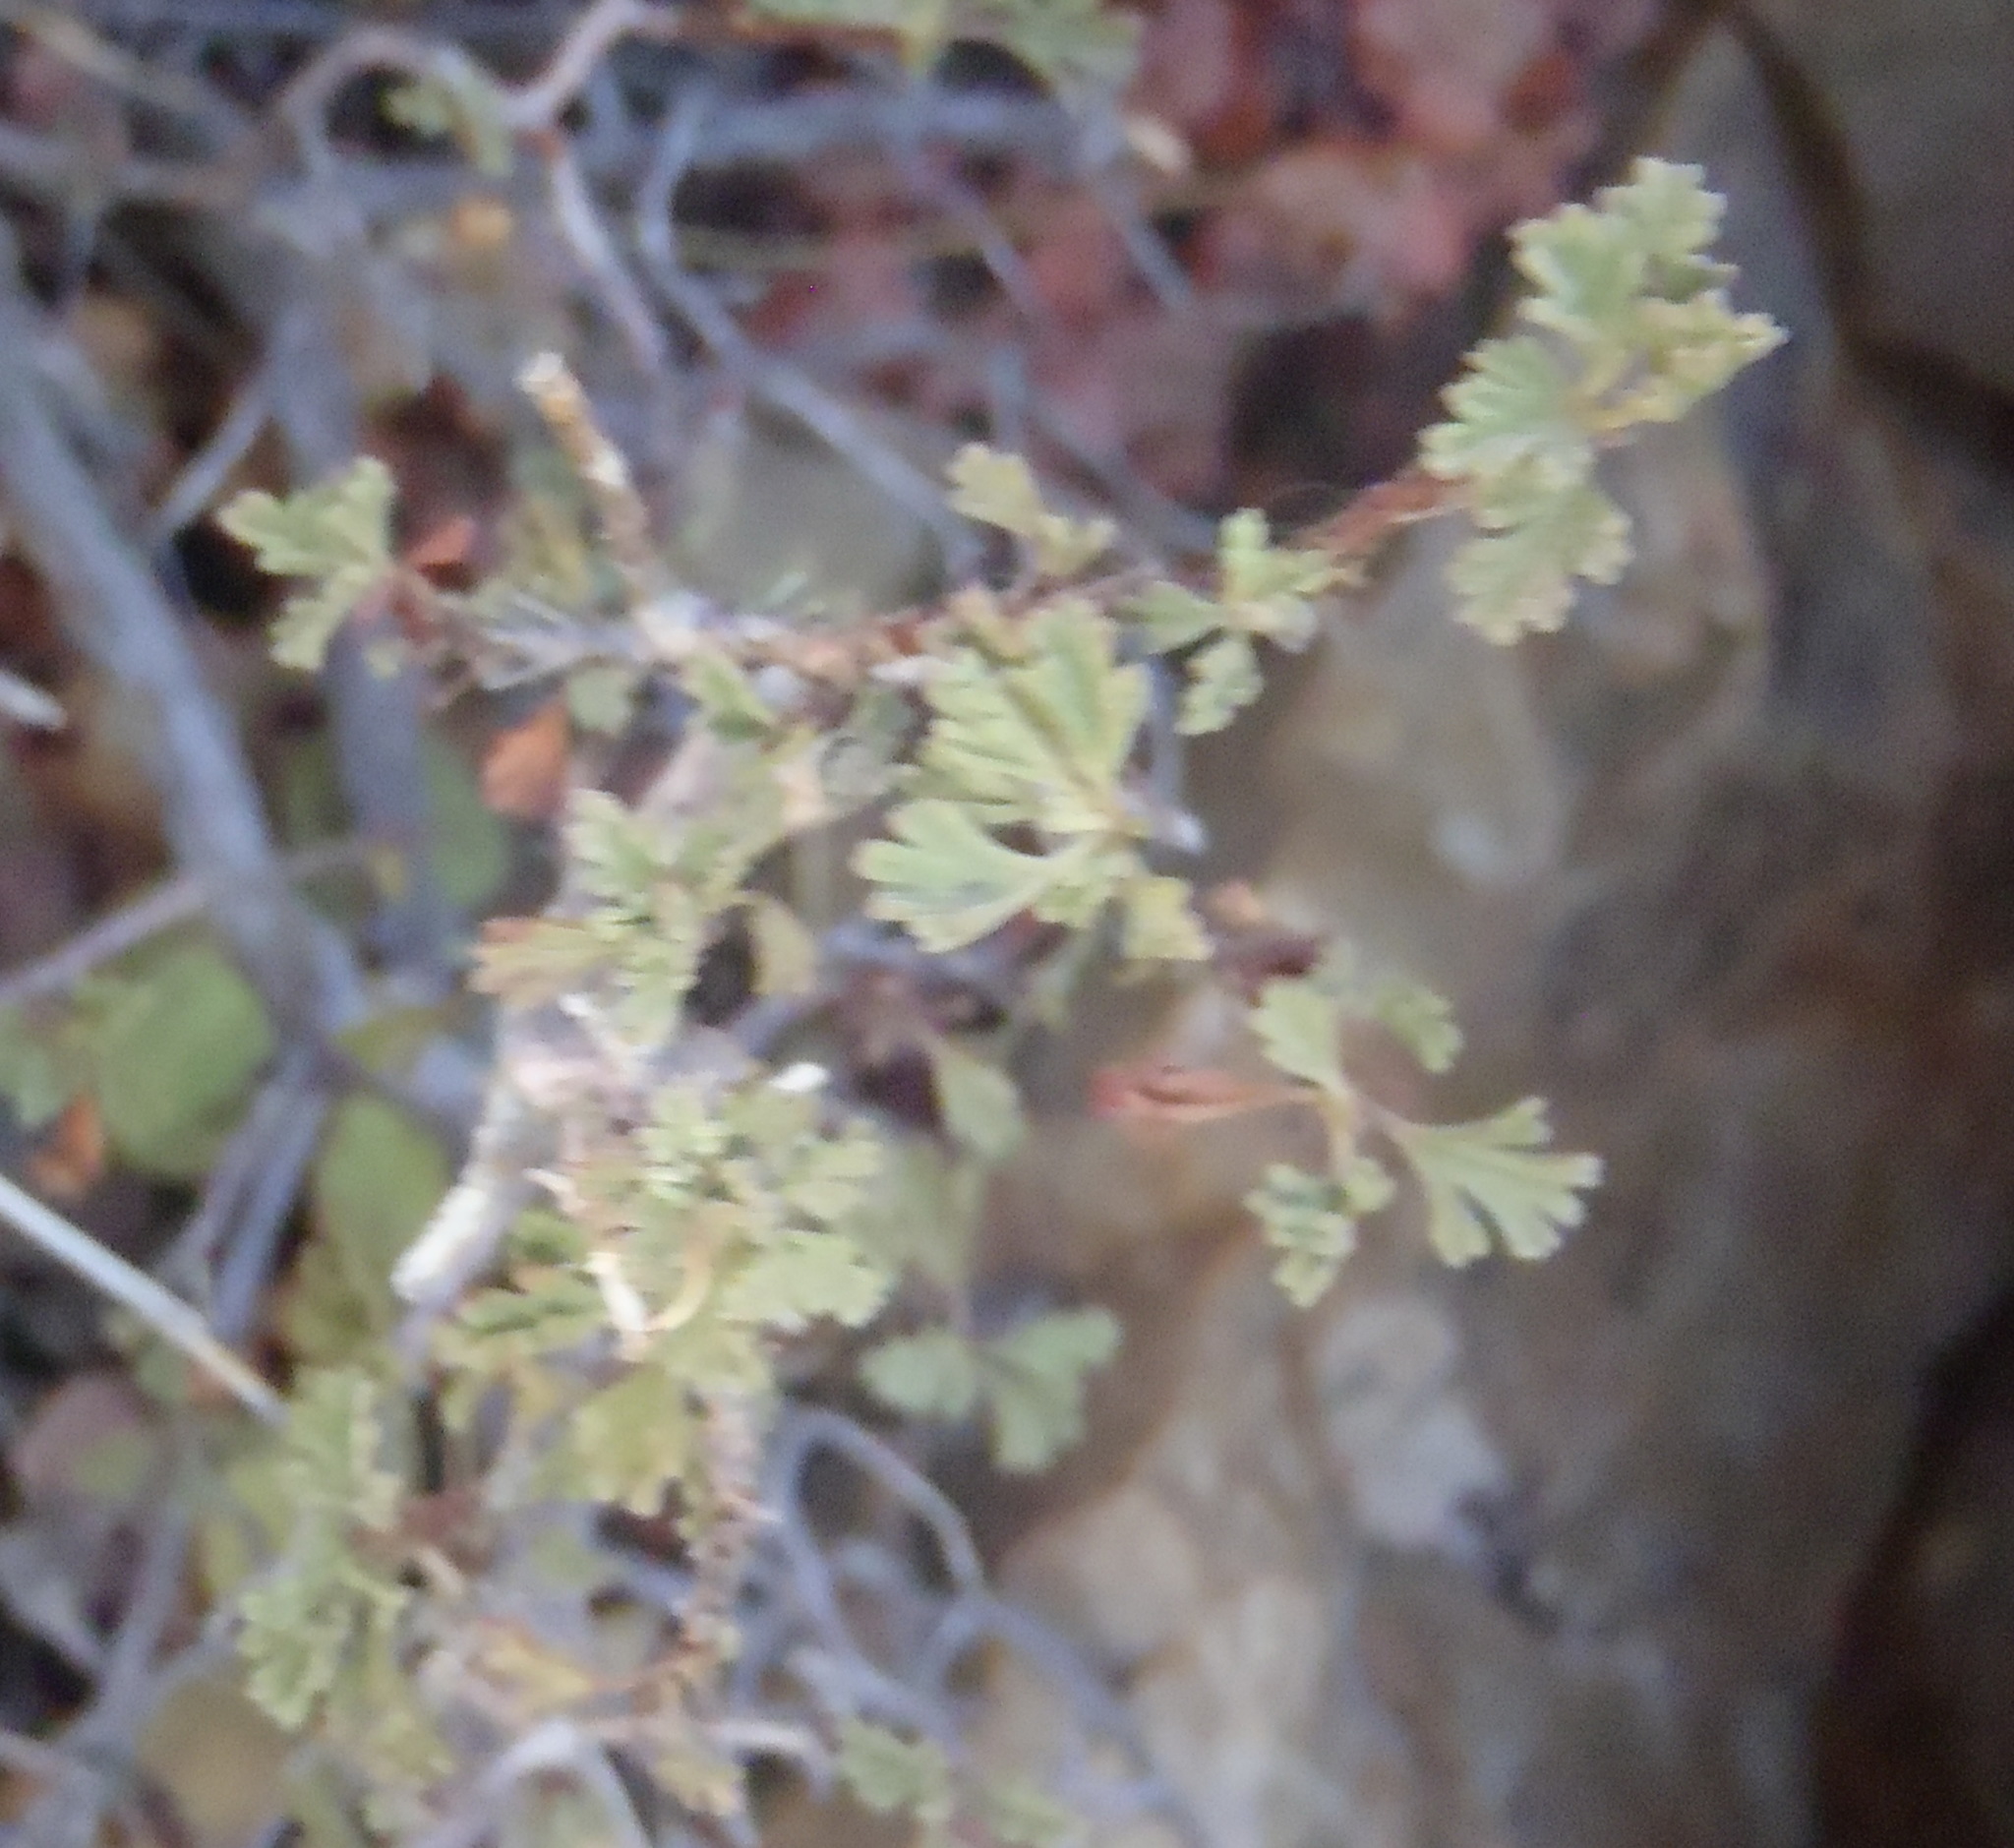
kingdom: Plantae
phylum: Tracheophyta
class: Magnoliopsida
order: Geraniales
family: Geraniaceae
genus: Pelargonium
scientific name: Pelargonium exstipulatum
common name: Soft-leaf trifid pelargonium
